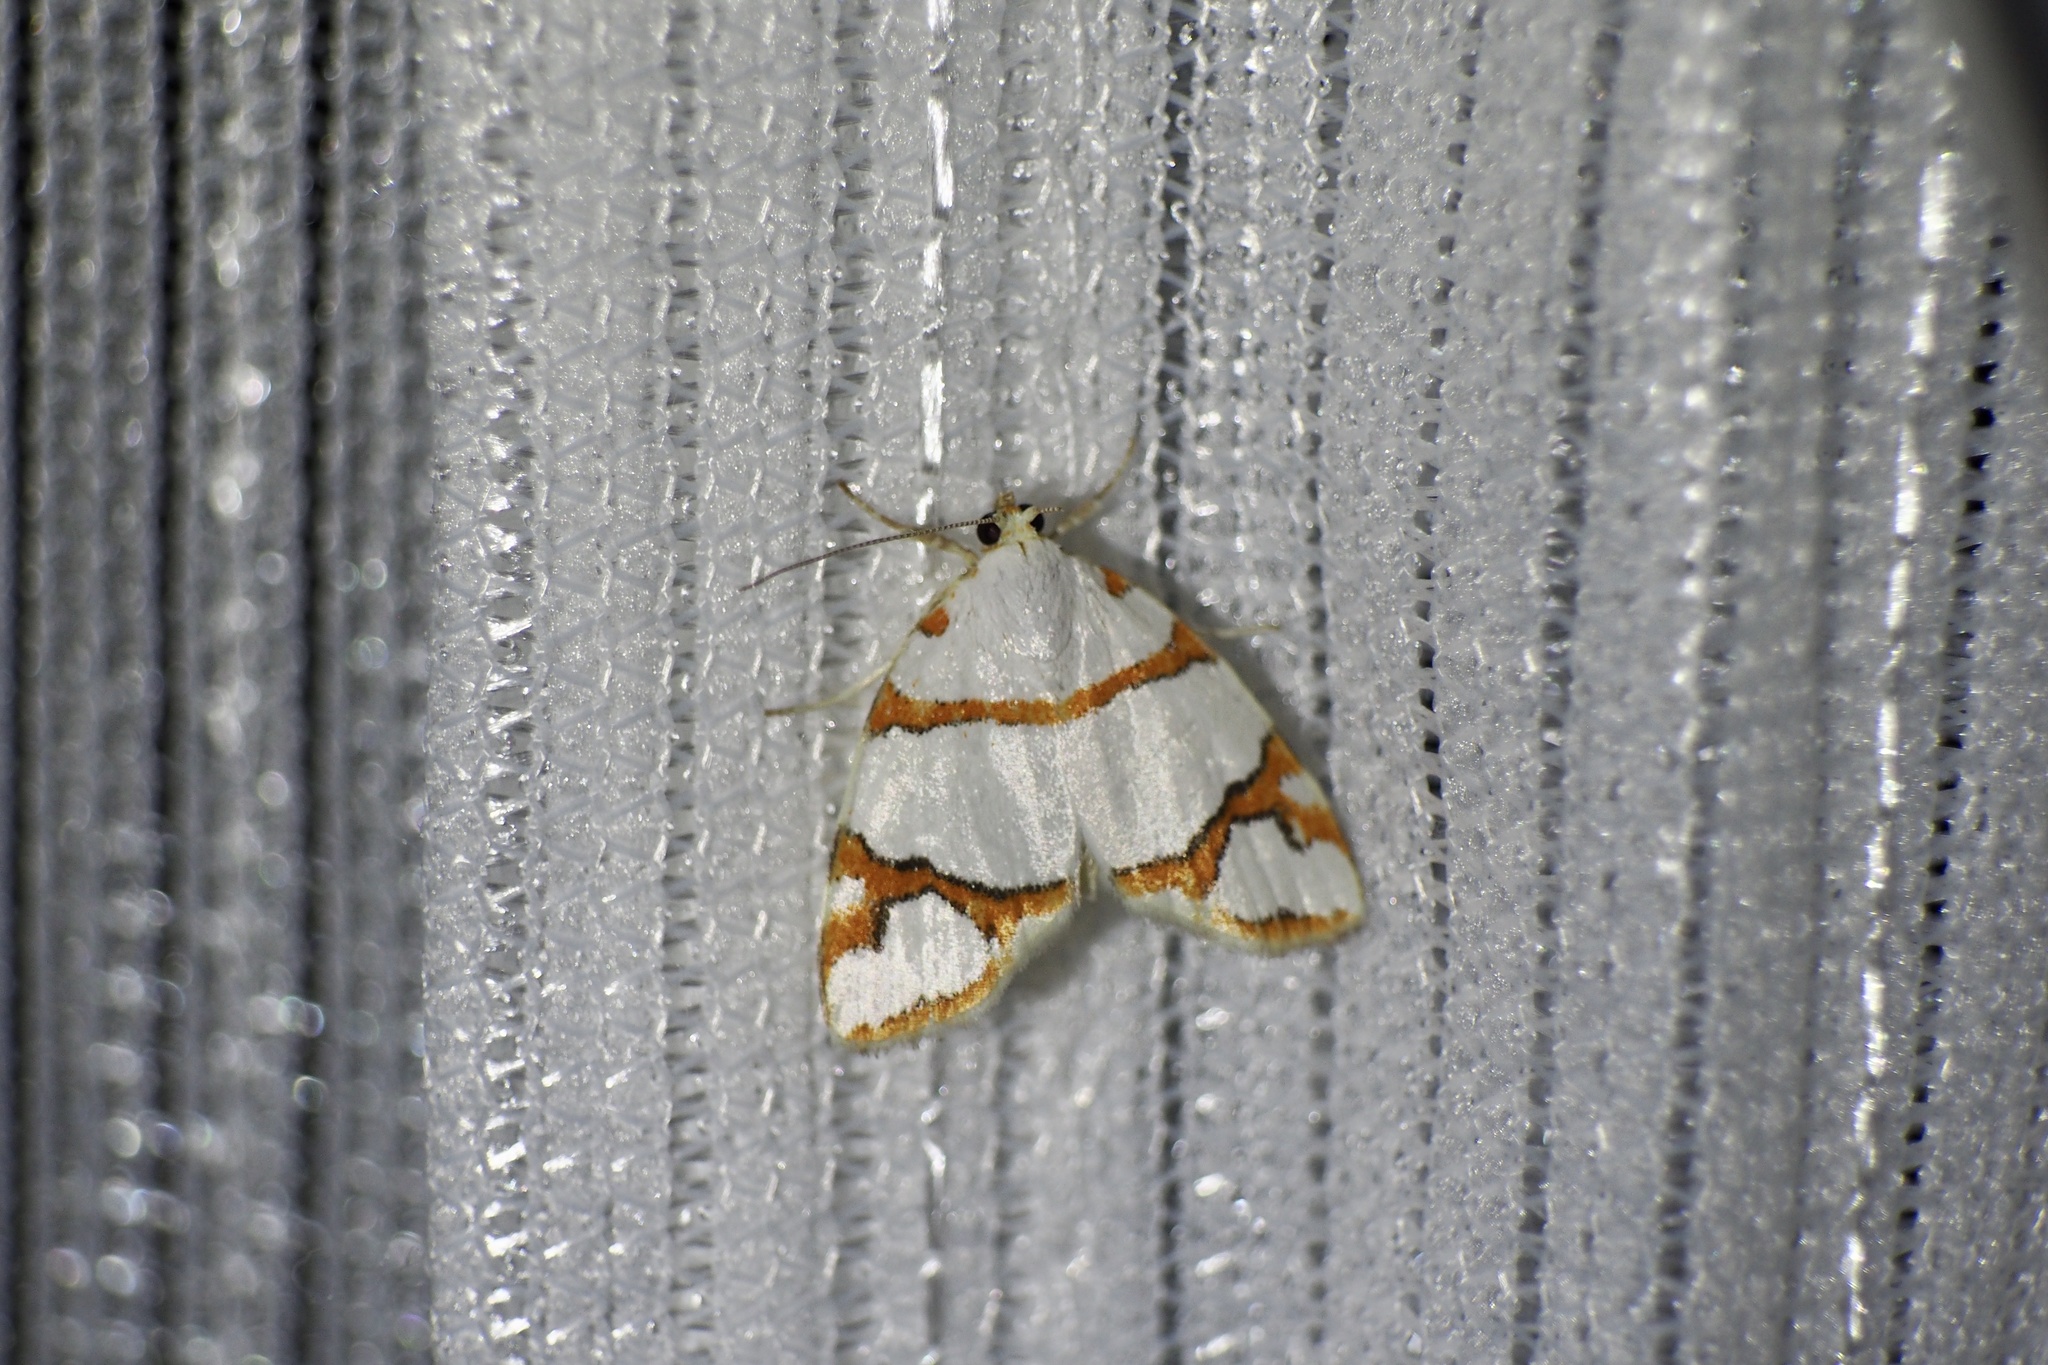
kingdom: Animalia
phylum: Arthropoda
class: Insecta
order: Lepidoptera
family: Nolidae
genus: Ariolica
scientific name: Ariolica argentea
